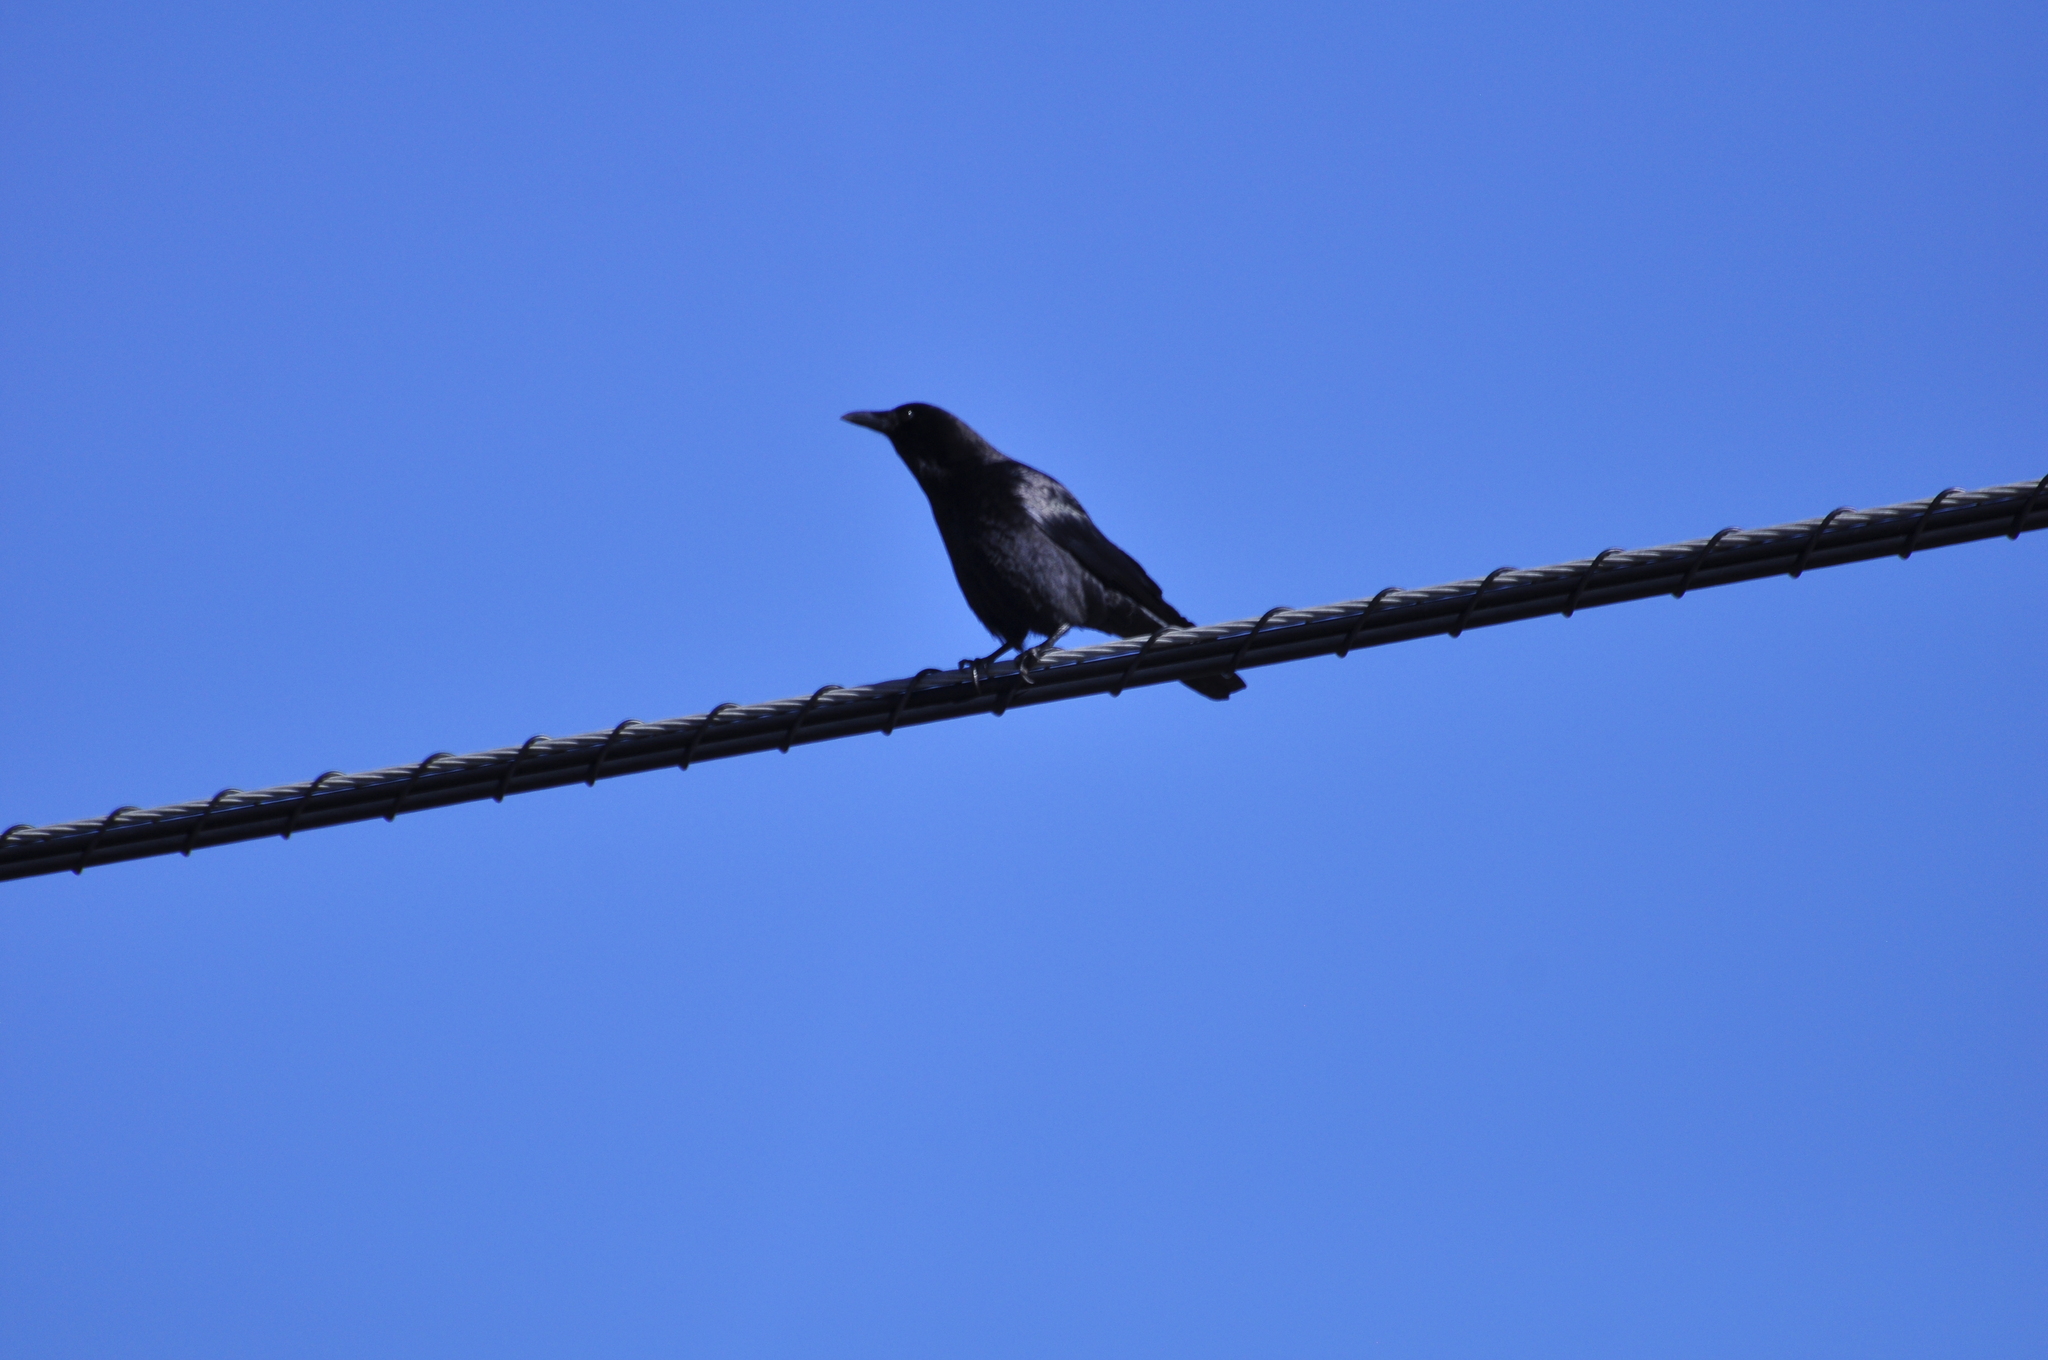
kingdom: Animalia
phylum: Chordata
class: Aves
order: Passeriformes
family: Corvidae
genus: Corvus
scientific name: Corvus brachyrhynchos
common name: American crow
